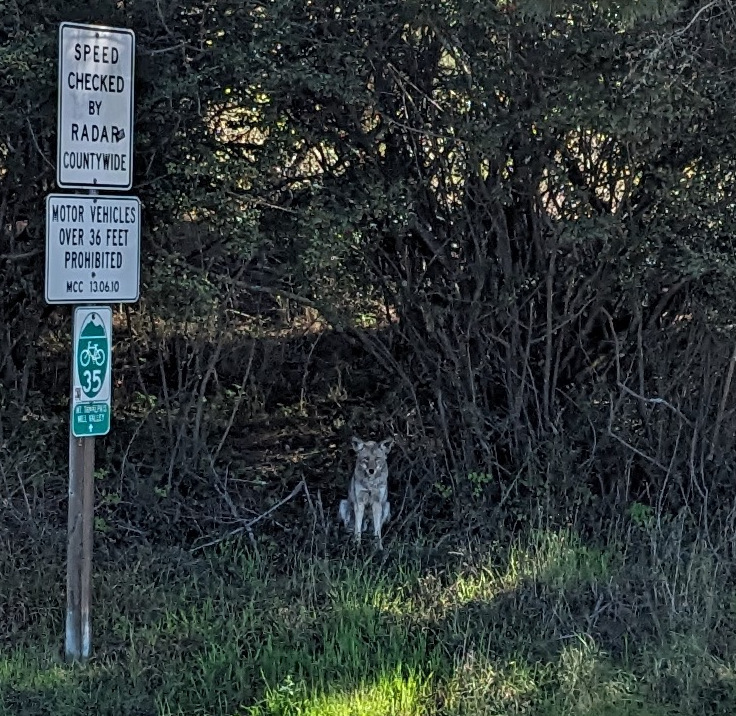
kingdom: Animalia
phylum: Chordata
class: Mammalia
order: Carnivora
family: Canidae
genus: Canis
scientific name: Canis latrans
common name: Coyote
